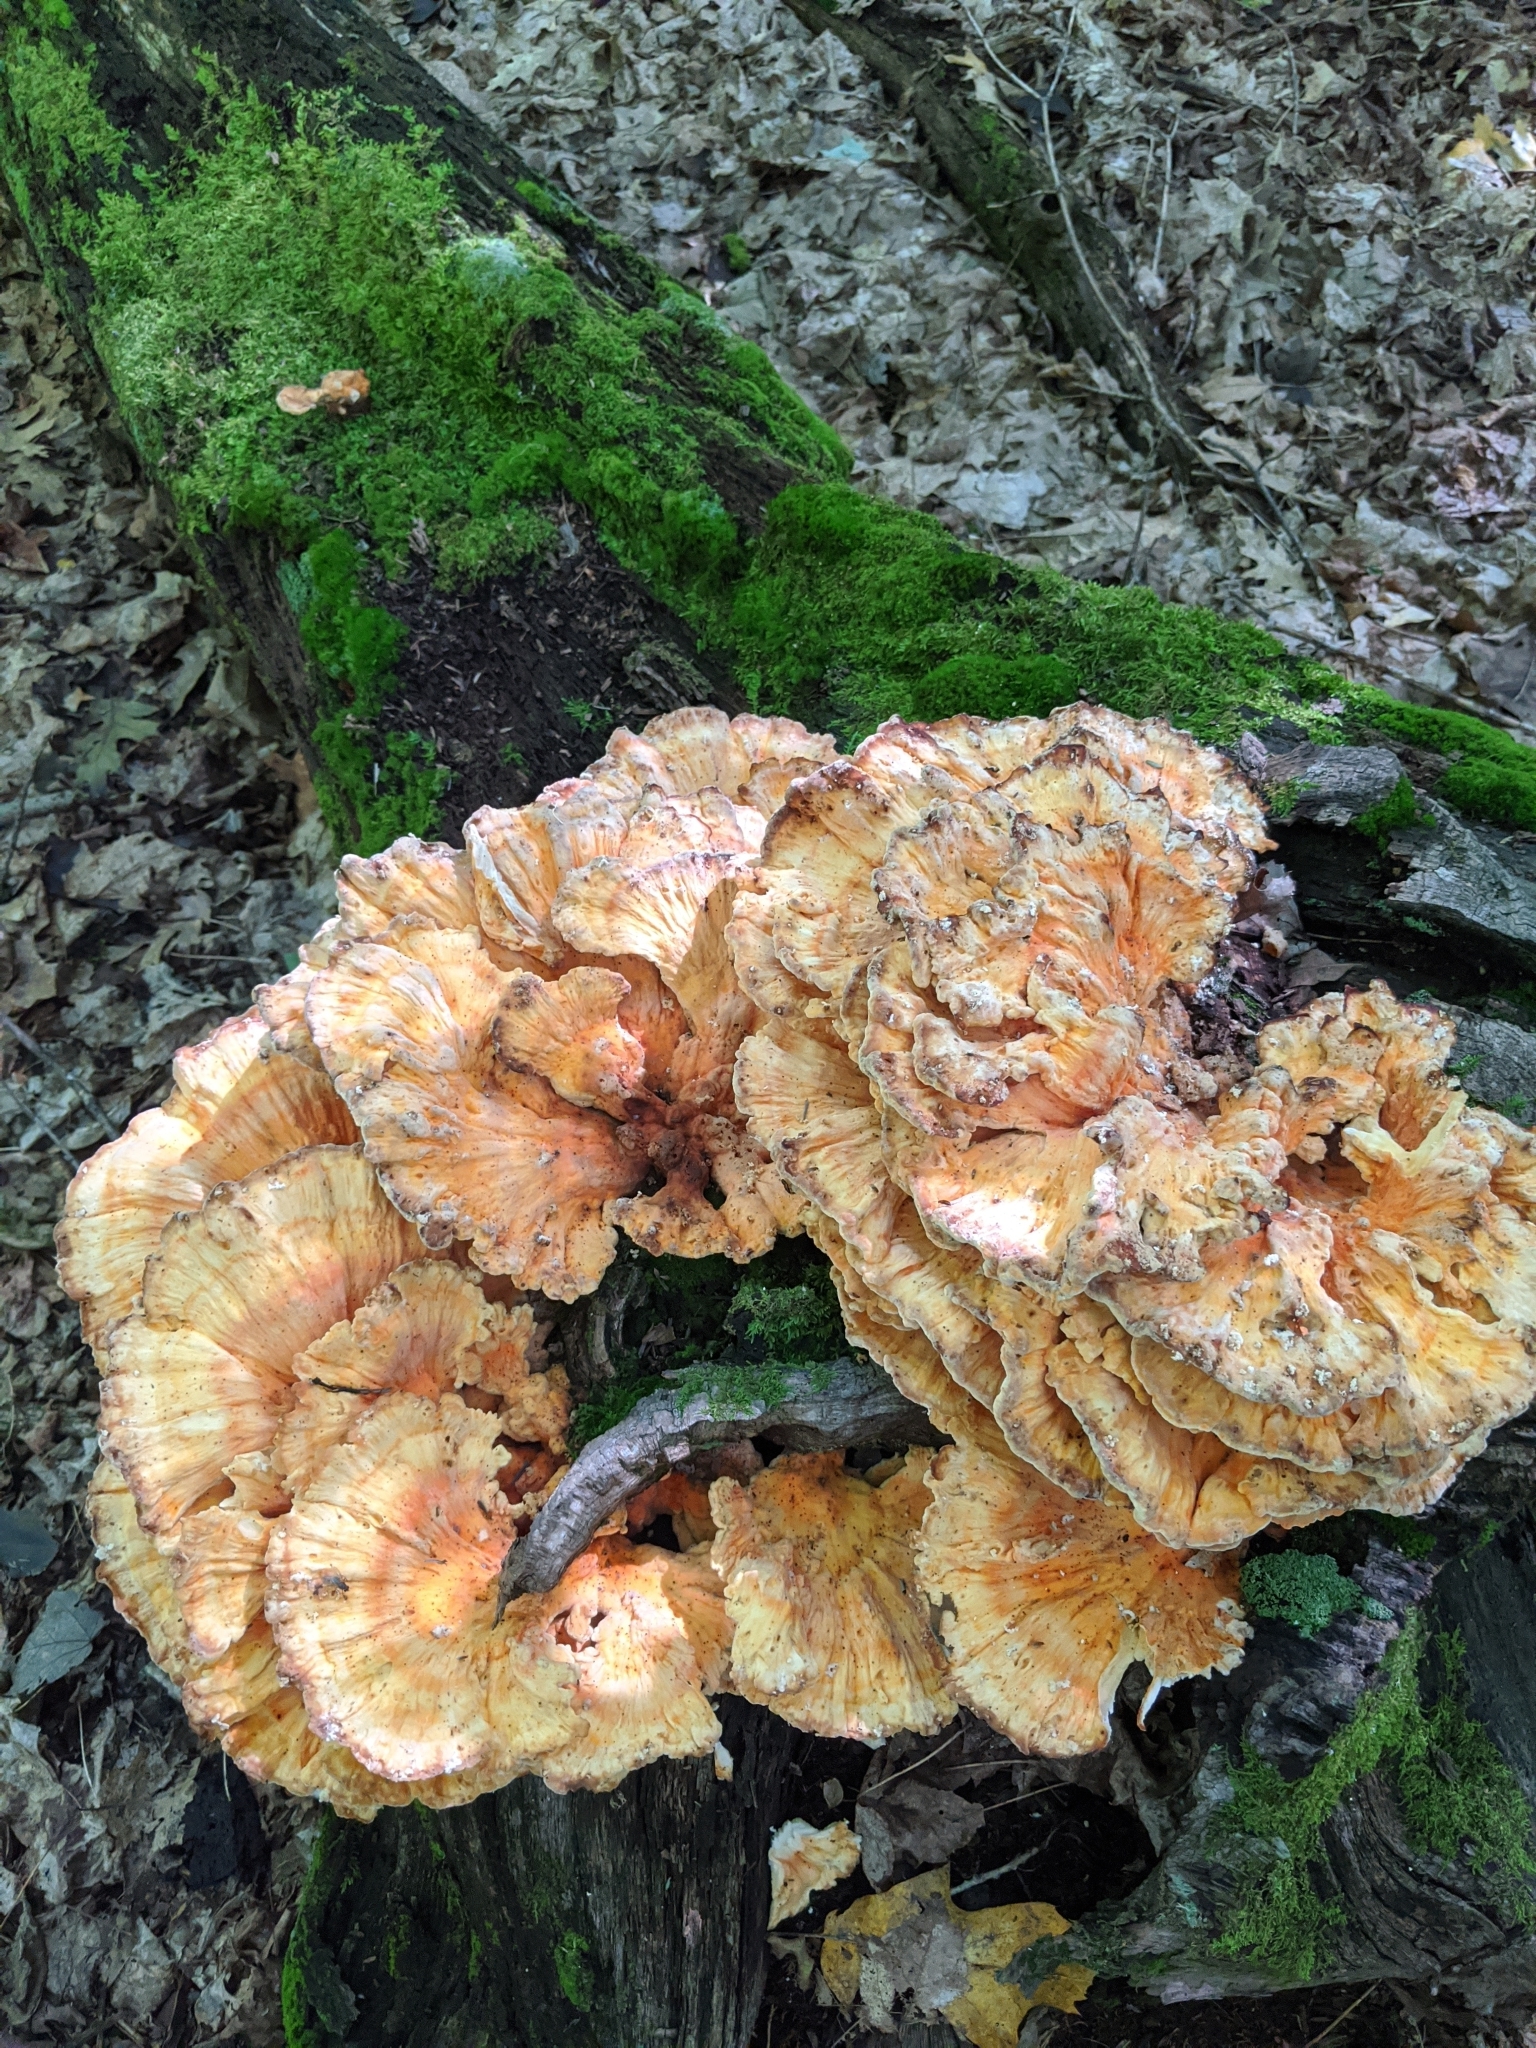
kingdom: Fungi
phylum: Basidiomycota
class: Agaricomycetes
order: Polyporales
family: Laetiporaceae
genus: Laetiporus
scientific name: Laetiporus sulphureus
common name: Chicken of the woods
